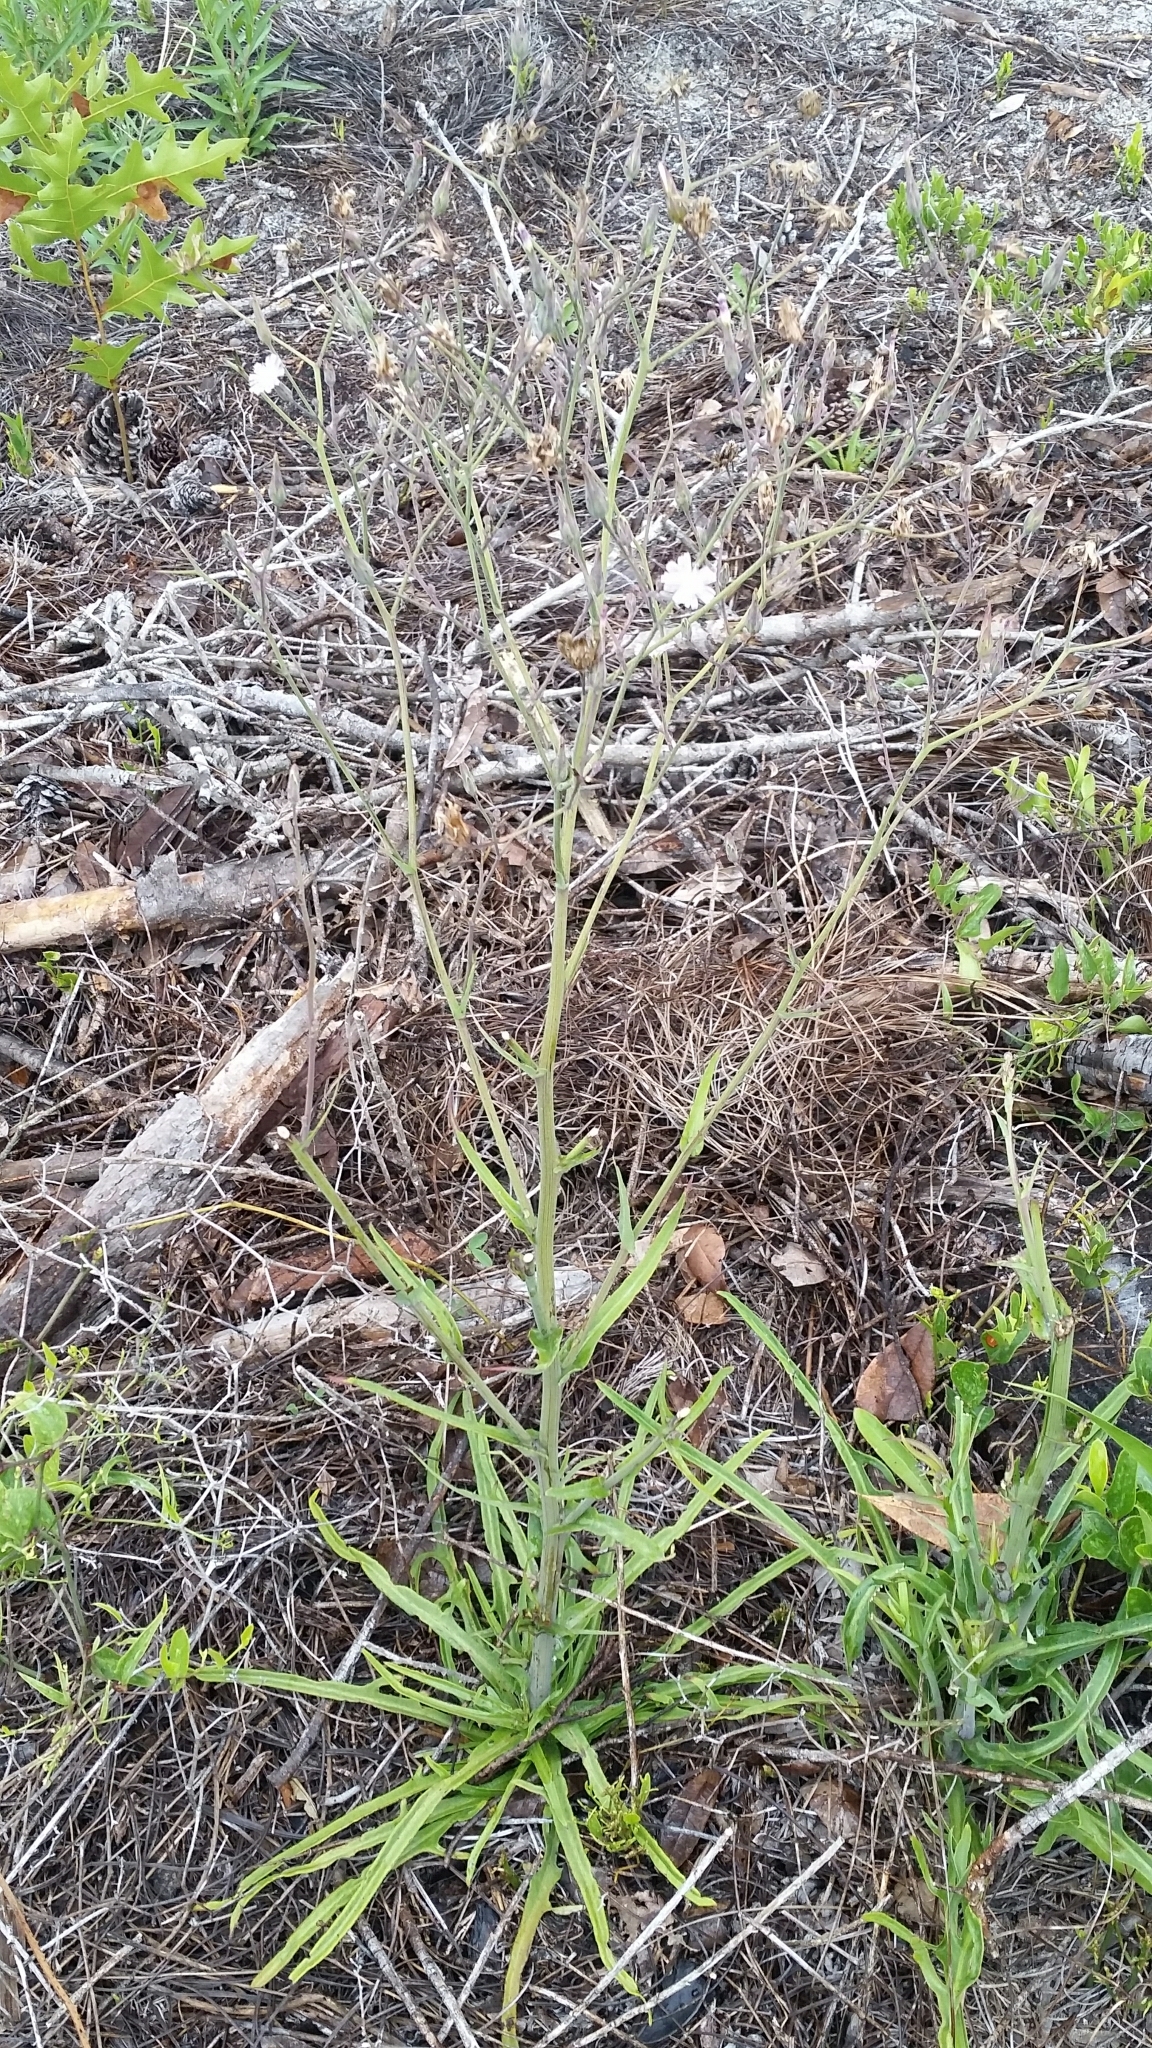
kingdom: Plantae
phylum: Tracheophyta
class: Magnoliopsida
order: Asterales
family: Asteraceae
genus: Lactuca
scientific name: Lactuca graminifolia
